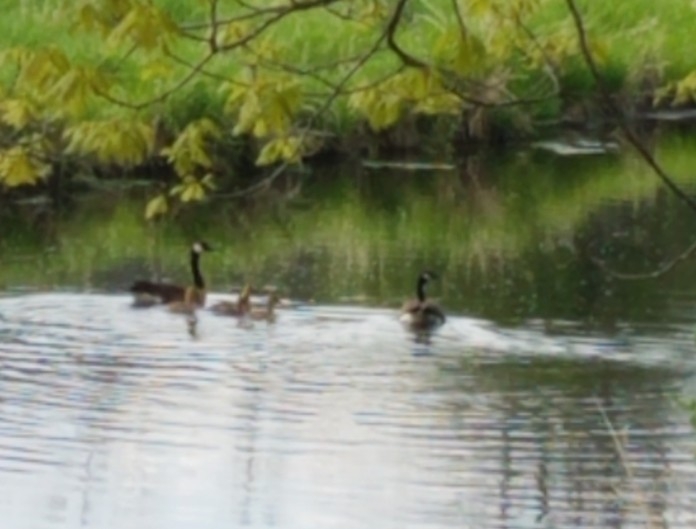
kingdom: Animalia
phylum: Chordata
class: Aves
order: Anseriformes
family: Anatidae
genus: Branta
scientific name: Branta canadensis
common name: Canada goose
